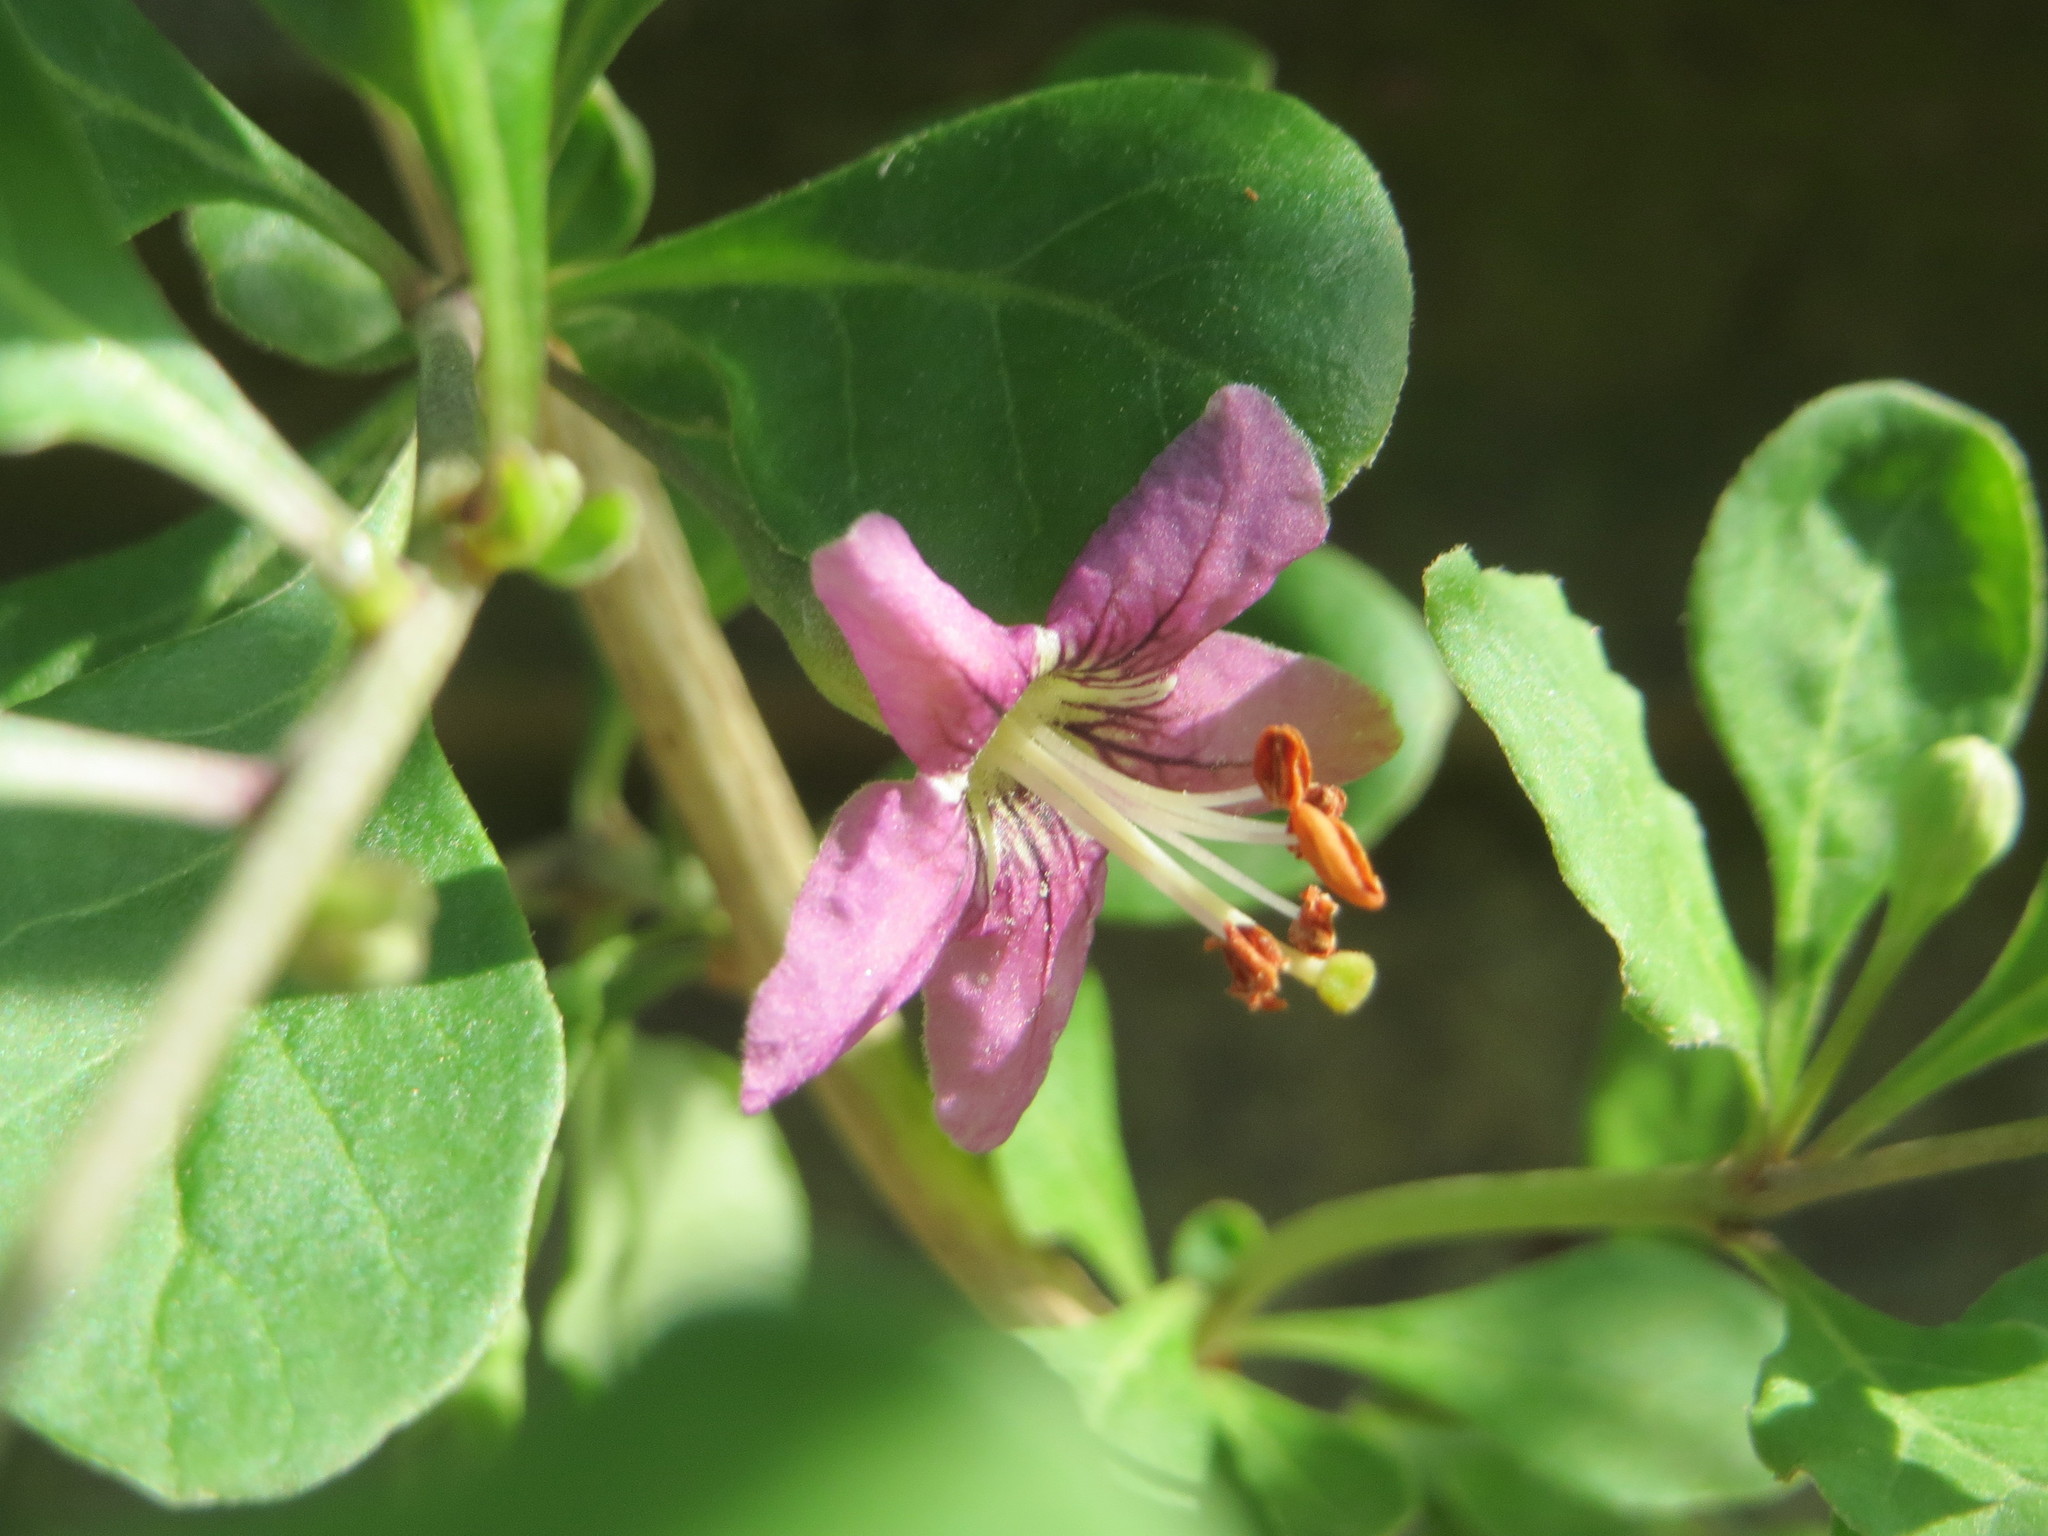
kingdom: Plantae
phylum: Tracheophyta
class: Magnoliopsida
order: Solanales
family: Solanaceae
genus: Lycium
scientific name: Lycium chinense
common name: Chinese teaplant
